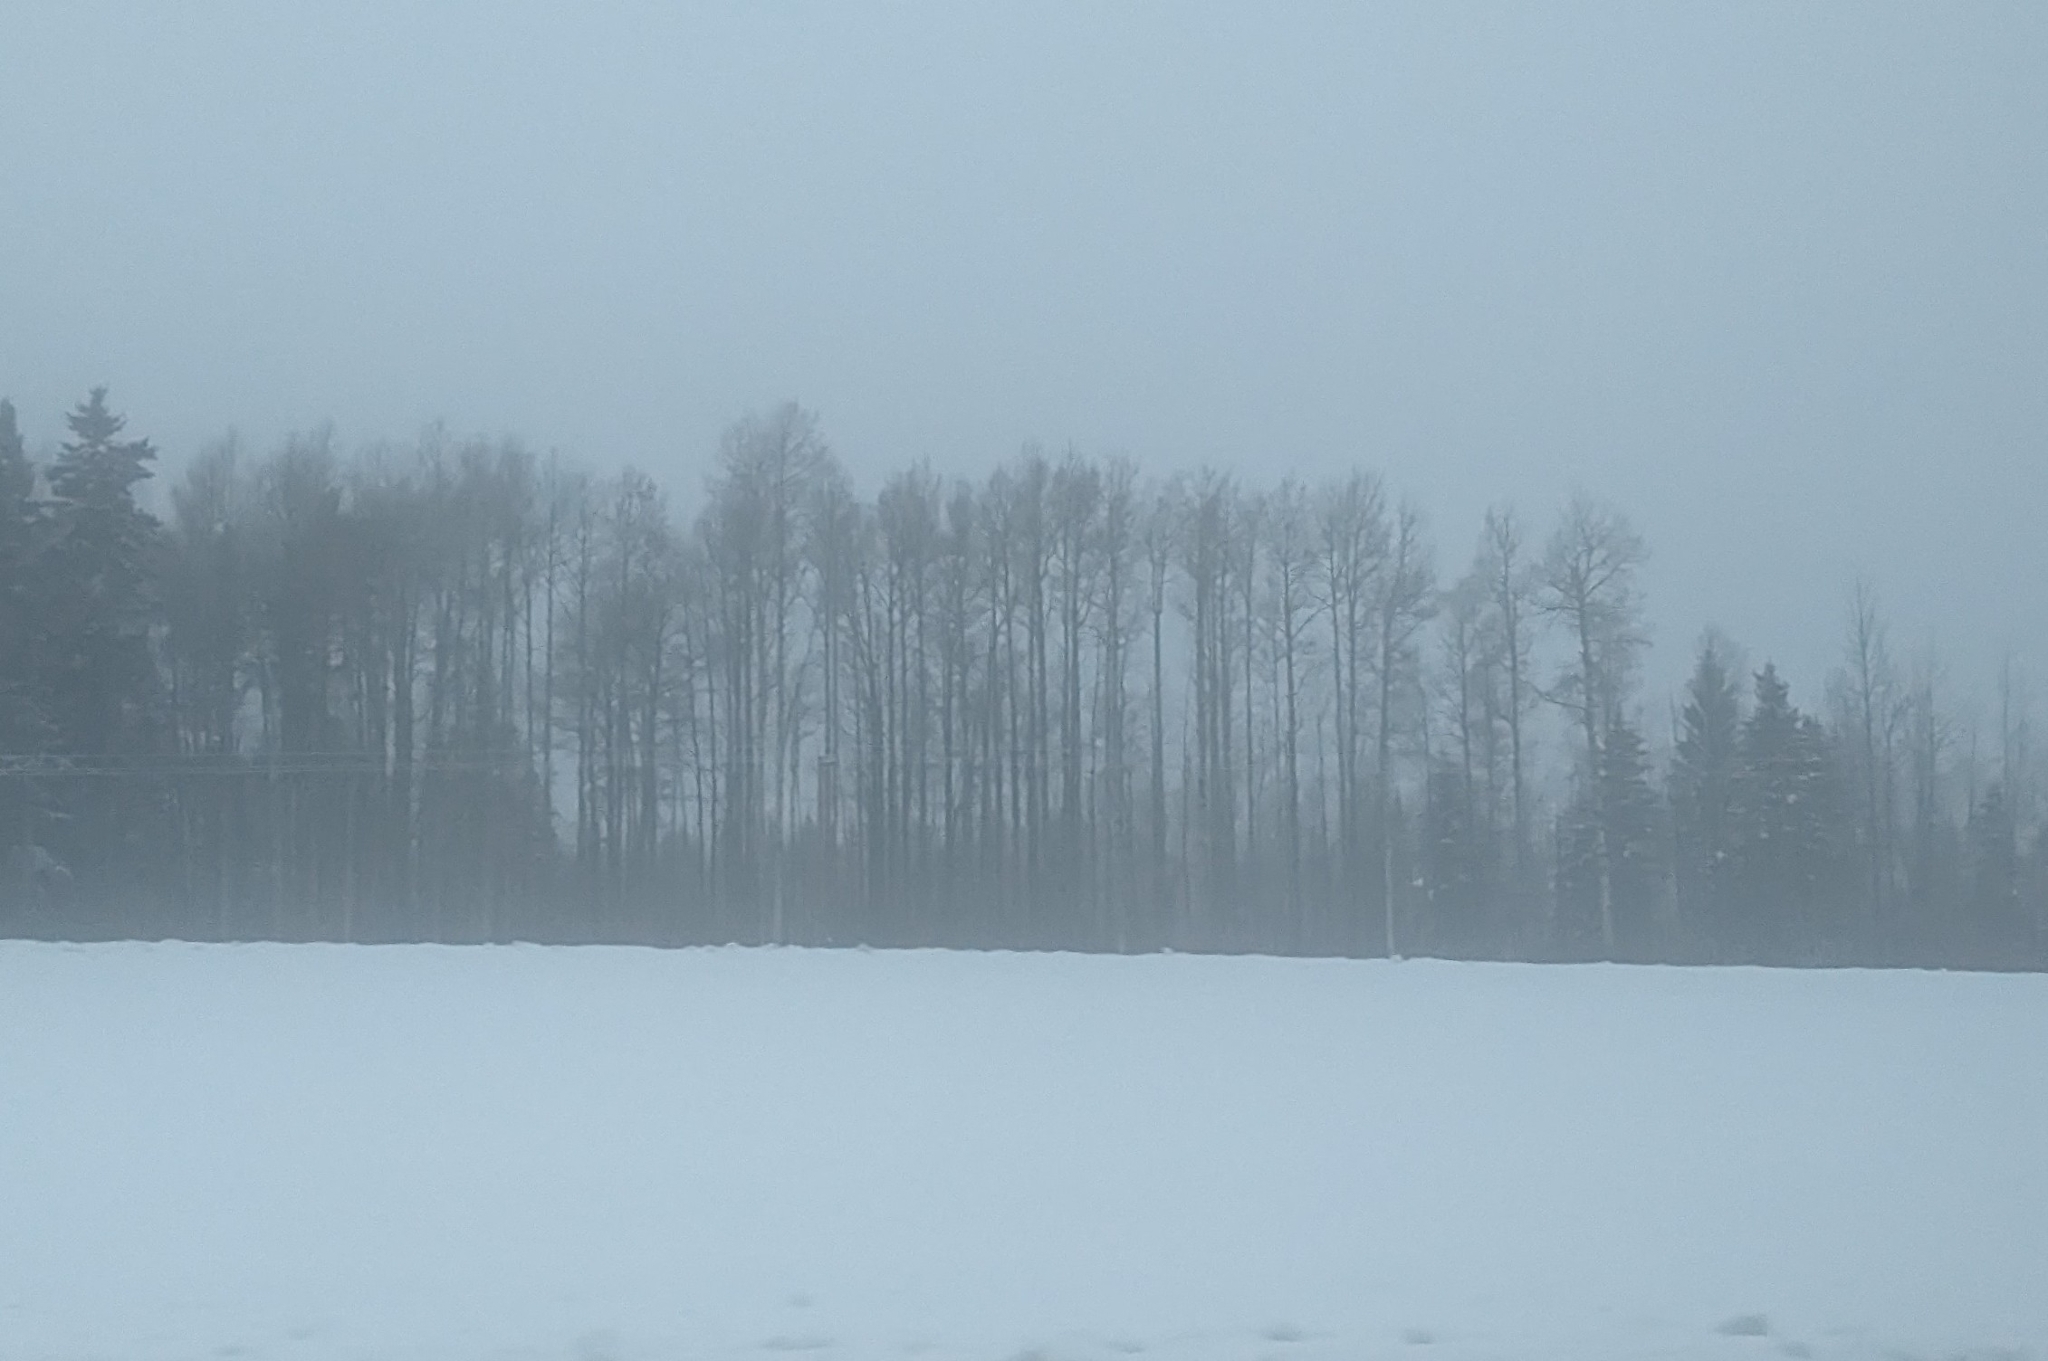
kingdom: Plantae
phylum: Tracheophyta
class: Magnoliopsida
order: Malpighiales
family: Salicaceae
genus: Populus
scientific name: Populus tremuloides
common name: Quaking aspen
